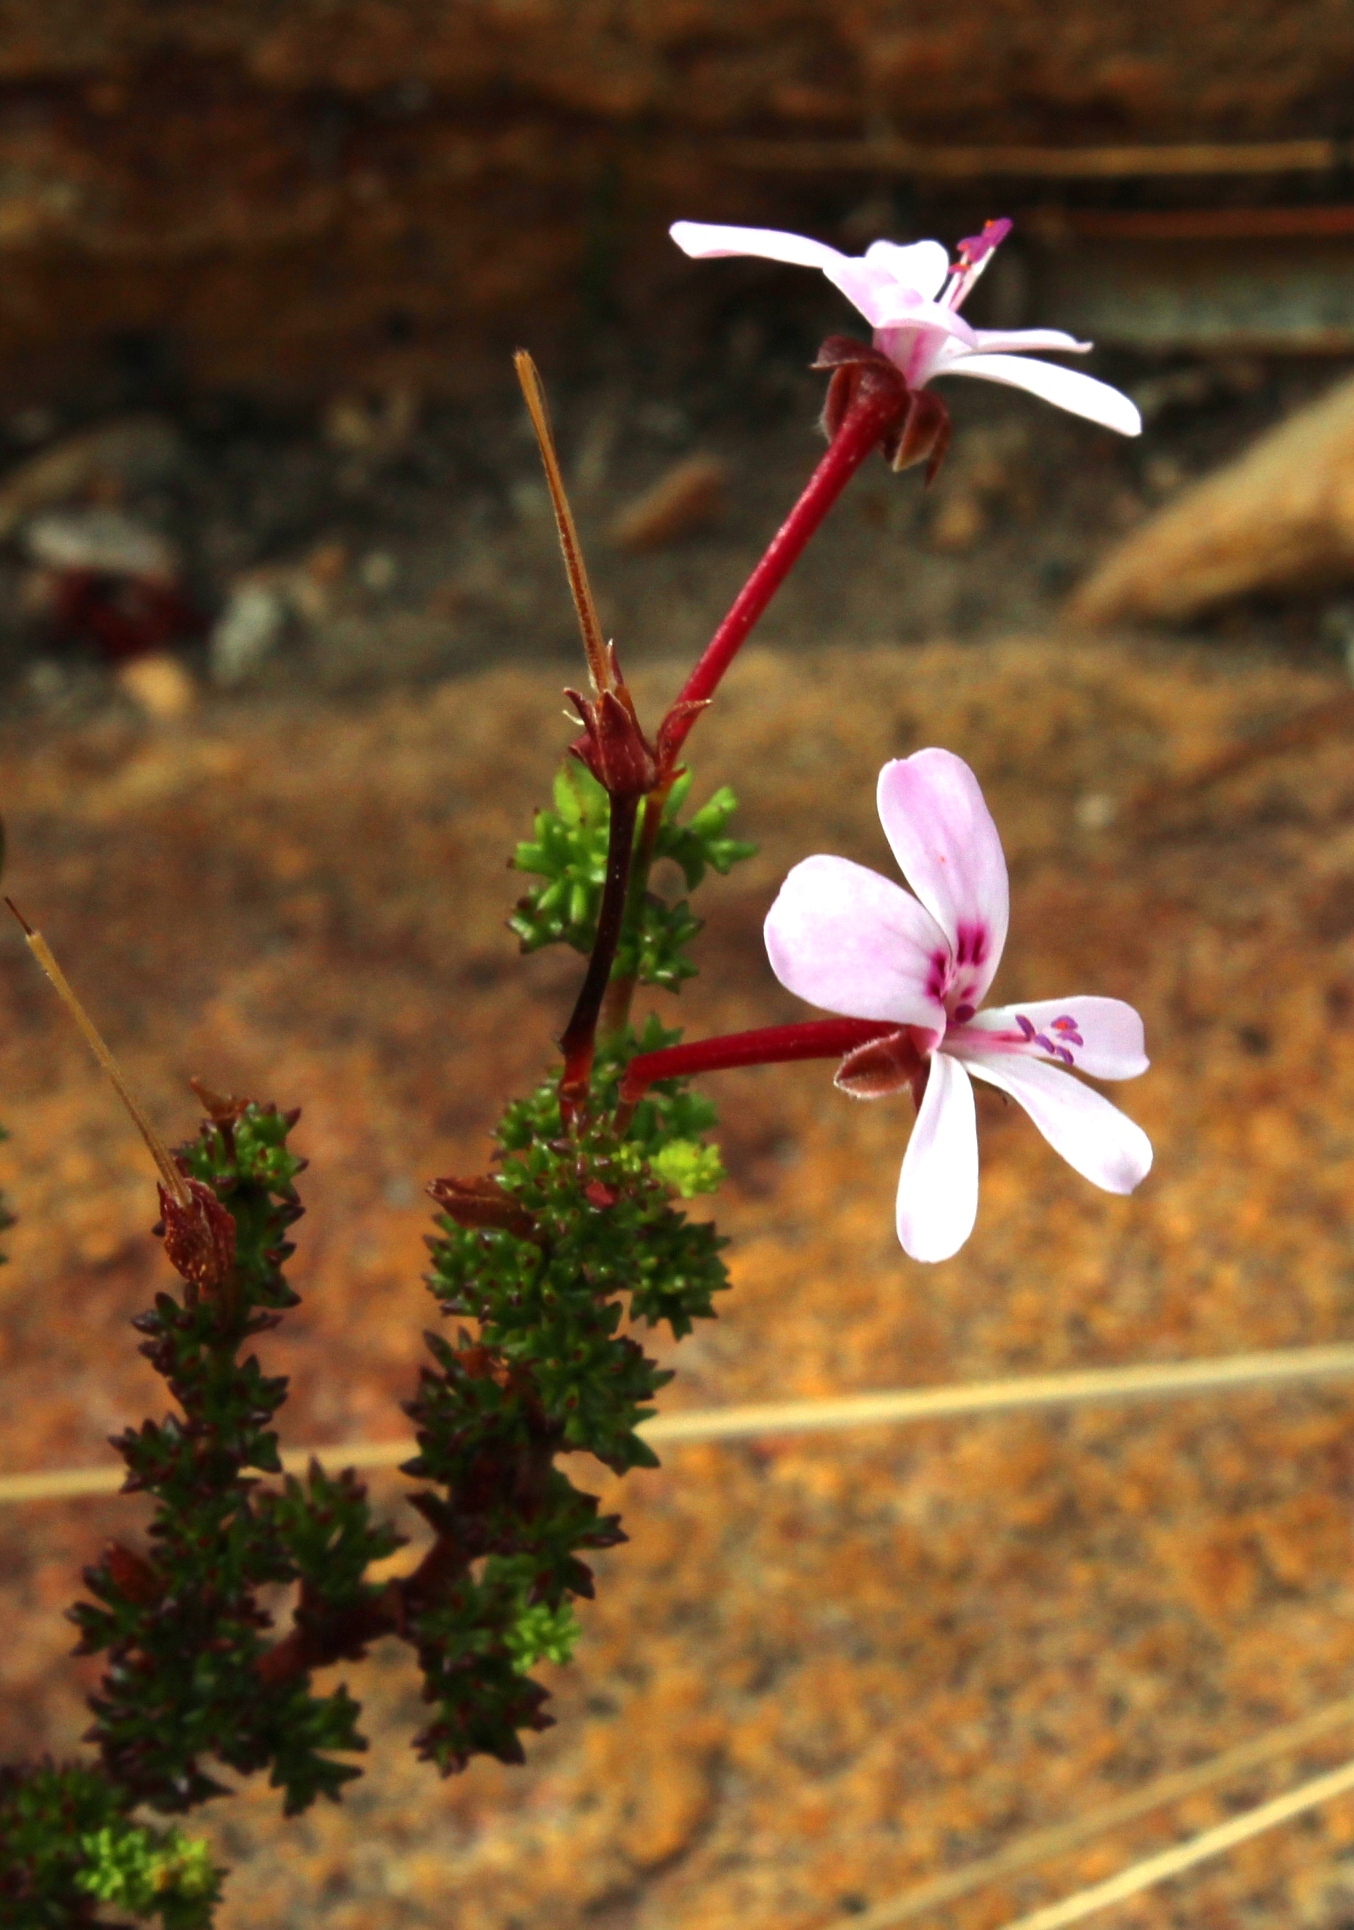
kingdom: Plantae
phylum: Tracheophyta
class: Magnoliopsida
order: Geraniales
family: Geraniaceae
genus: Pelargonium
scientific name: Pelargonium fruticosum
